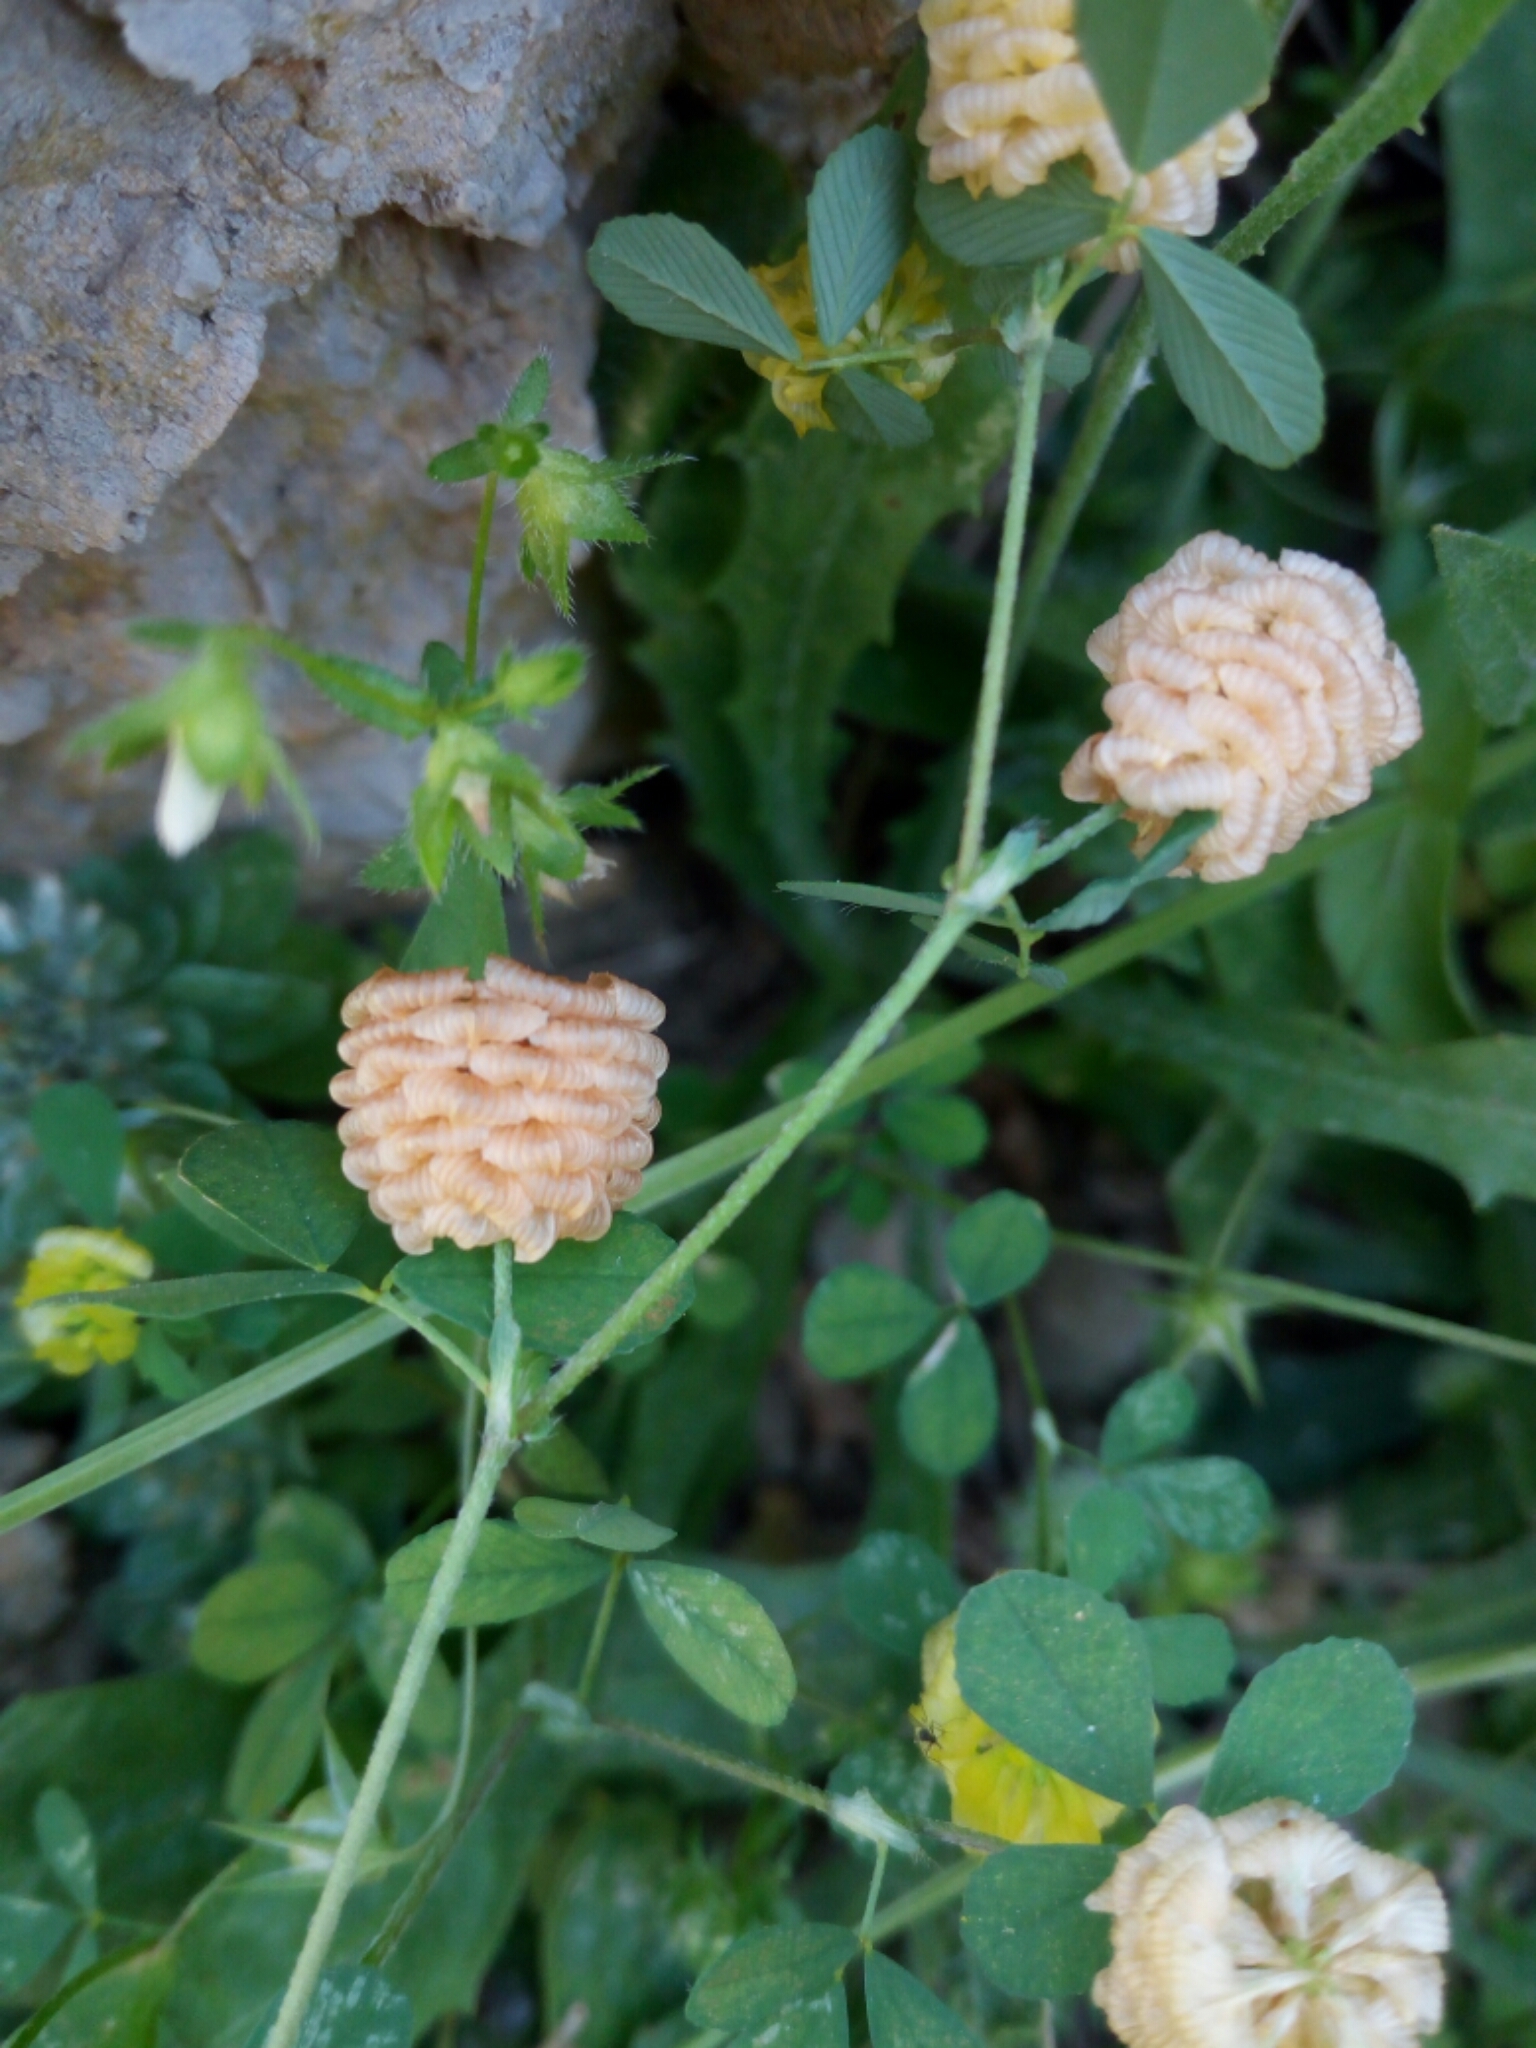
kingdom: Plantae
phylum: Tracheophyta
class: Magnoliopsida
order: Fabales
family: Fabaceae
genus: Trifolium
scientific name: Trifolium campestre
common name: Field clover
